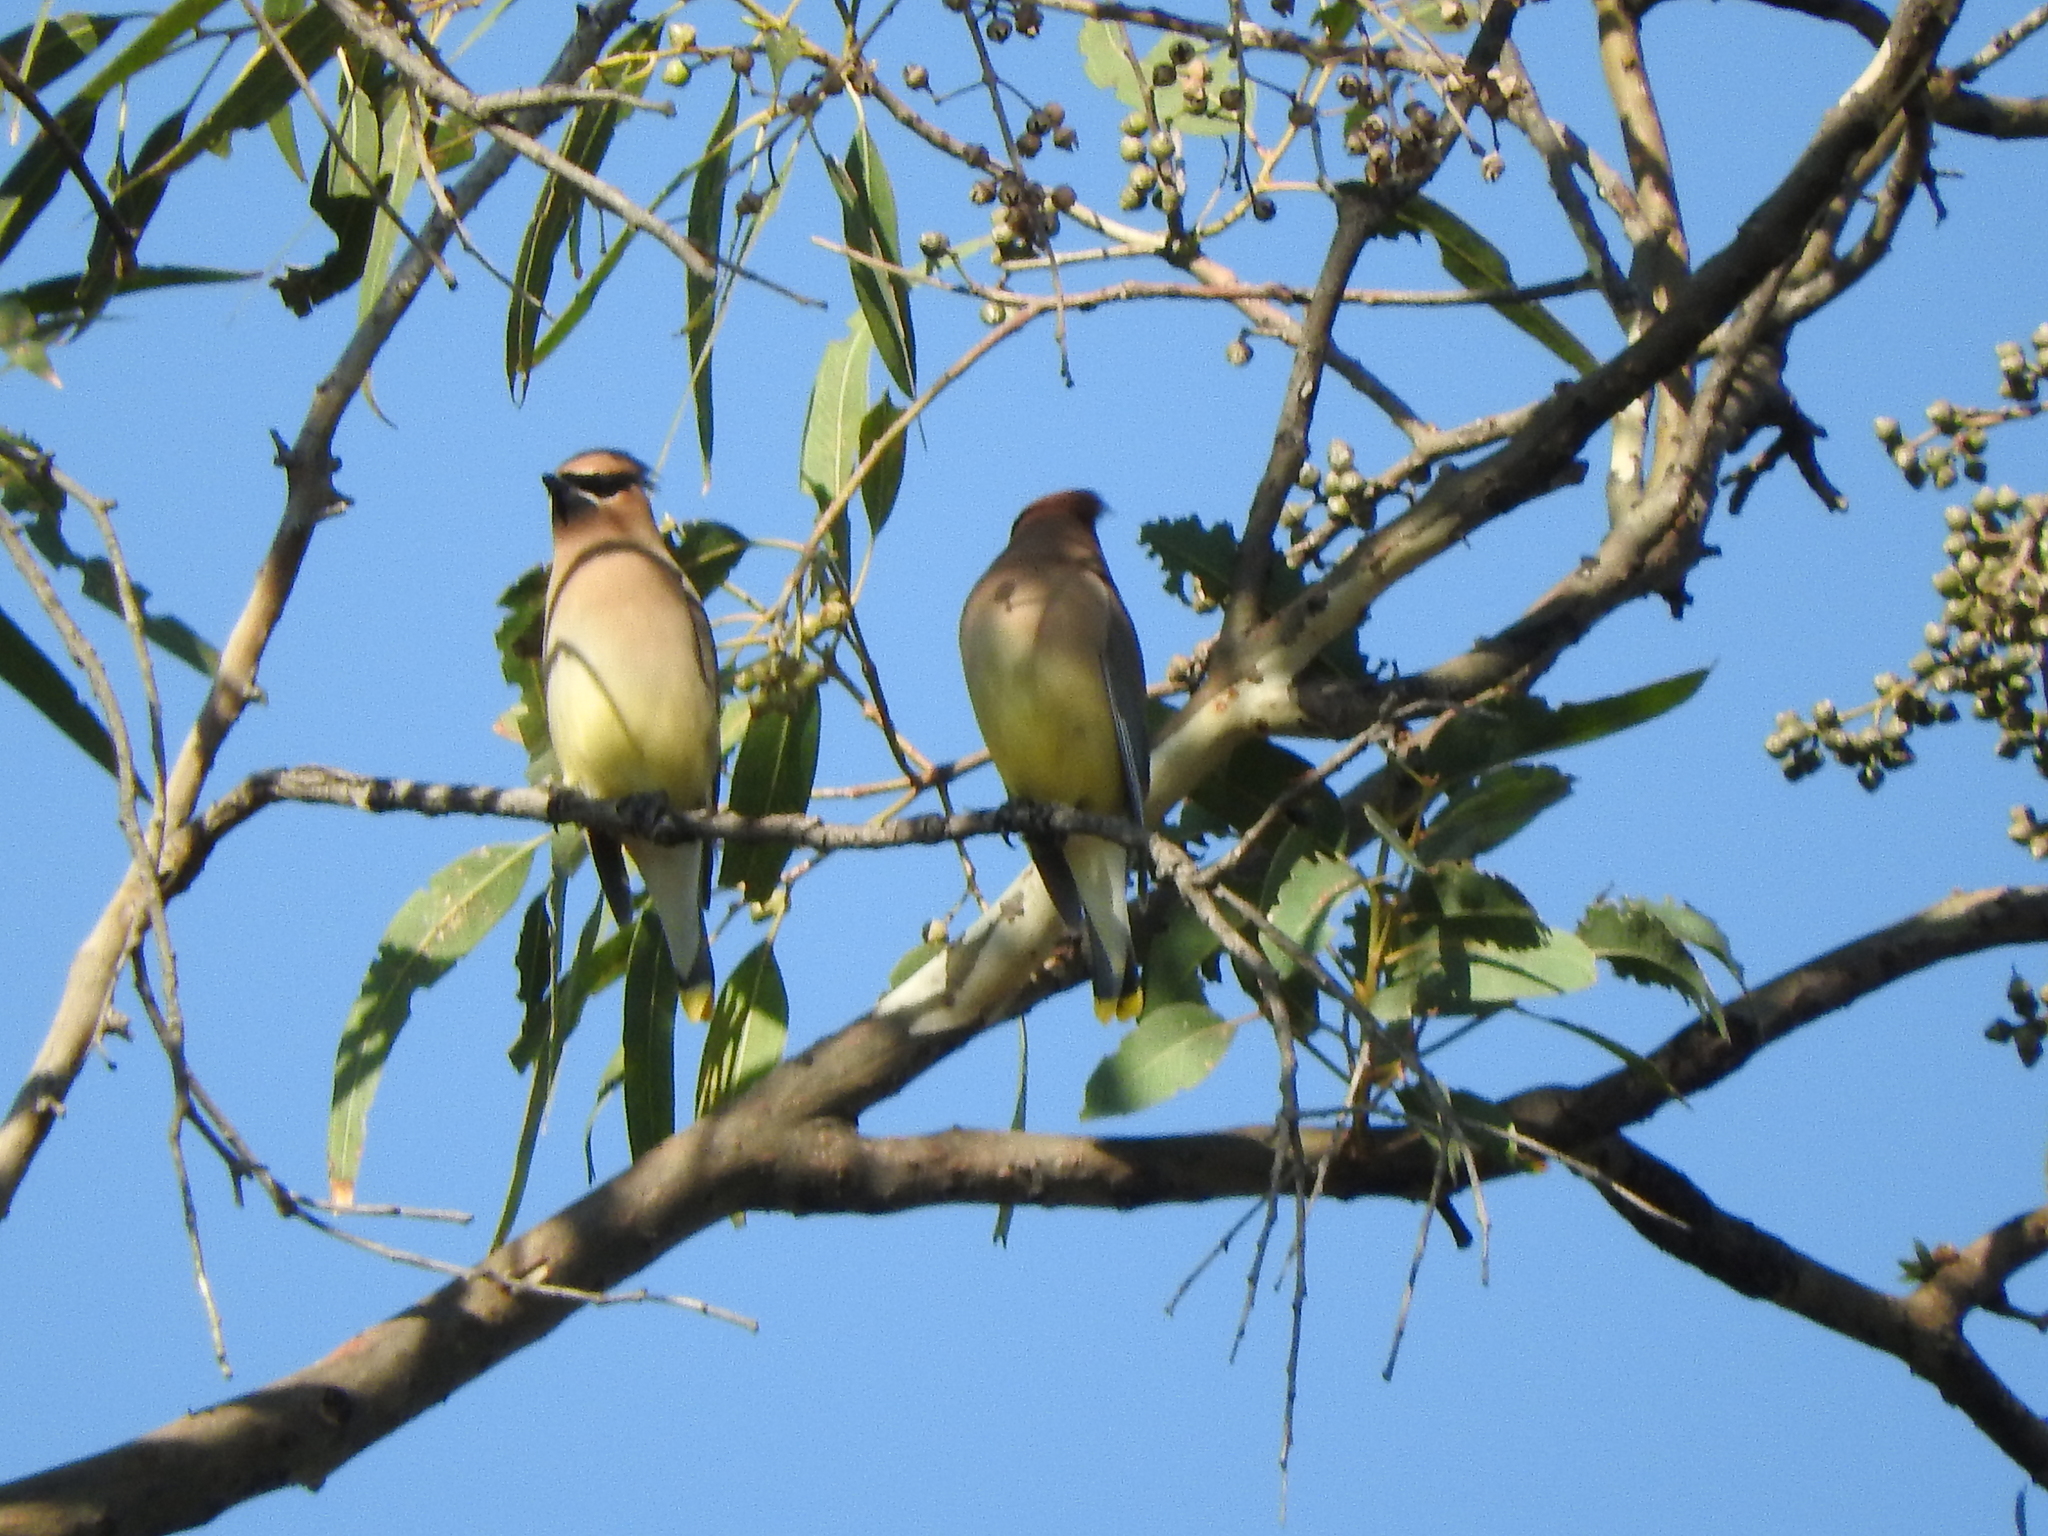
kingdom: Animalia
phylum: Chordata
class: Aves
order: Passeriformes
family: Bombycillidae
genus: Bombycilla
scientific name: Bombycilla cedrorum
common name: Cedar waxwing
